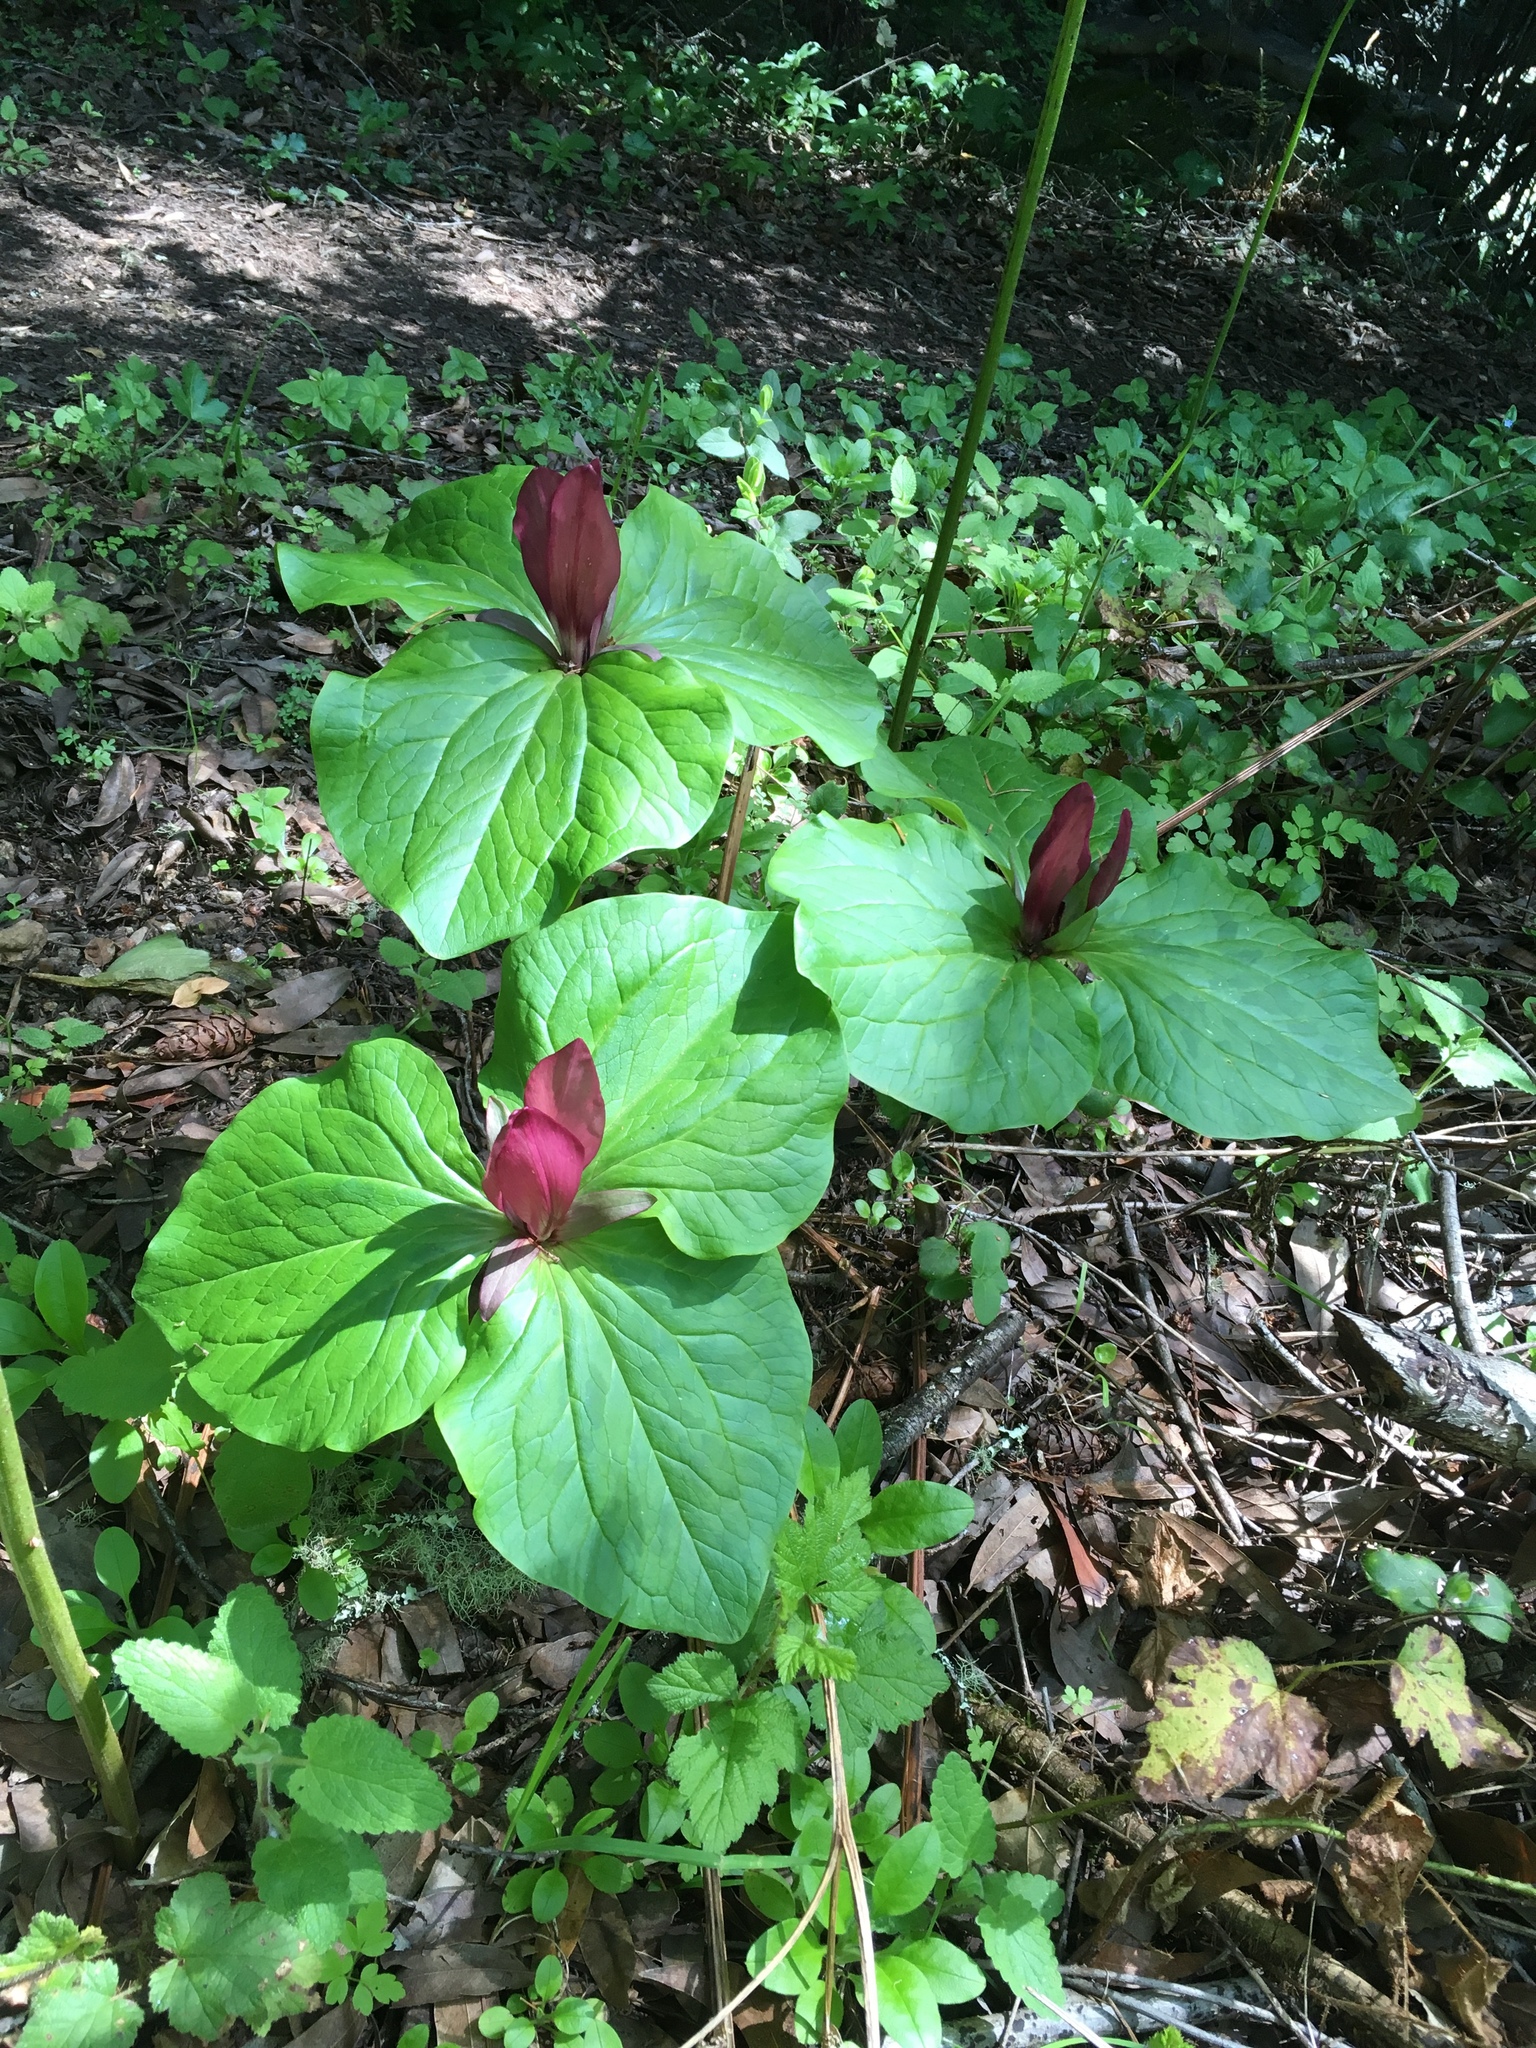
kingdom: Plantae
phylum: Tracheophyta
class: Liliopsida
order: Liliales
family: Melanthiaceae
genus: Trillium
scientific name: Trillium chloropetalum
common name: Giant trillium
